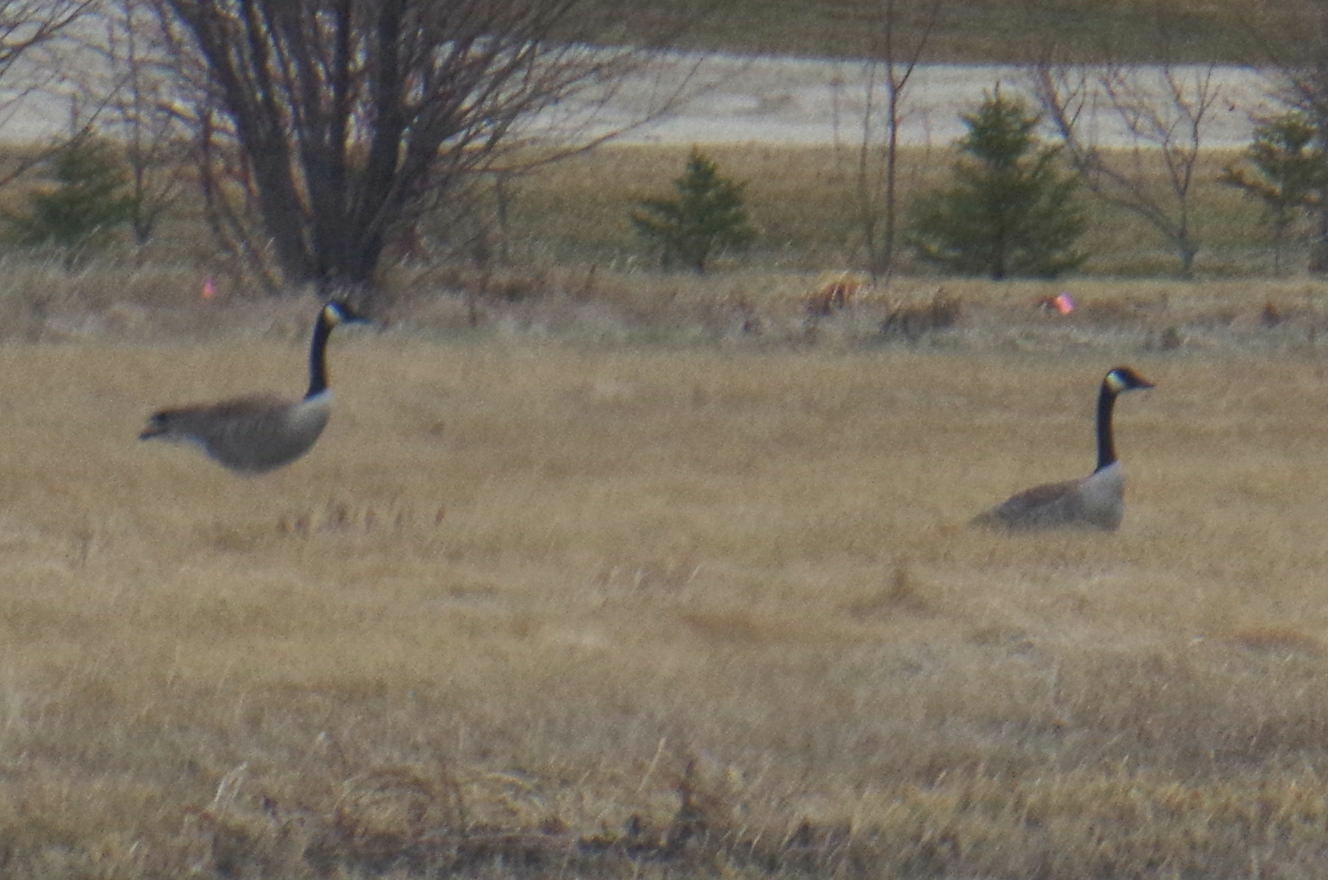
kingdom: Animalia
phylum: Chordata
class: Aves
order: Anseriformes
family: Anatidae
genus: Branta
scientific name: Branta canadensis
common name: Canada goose
